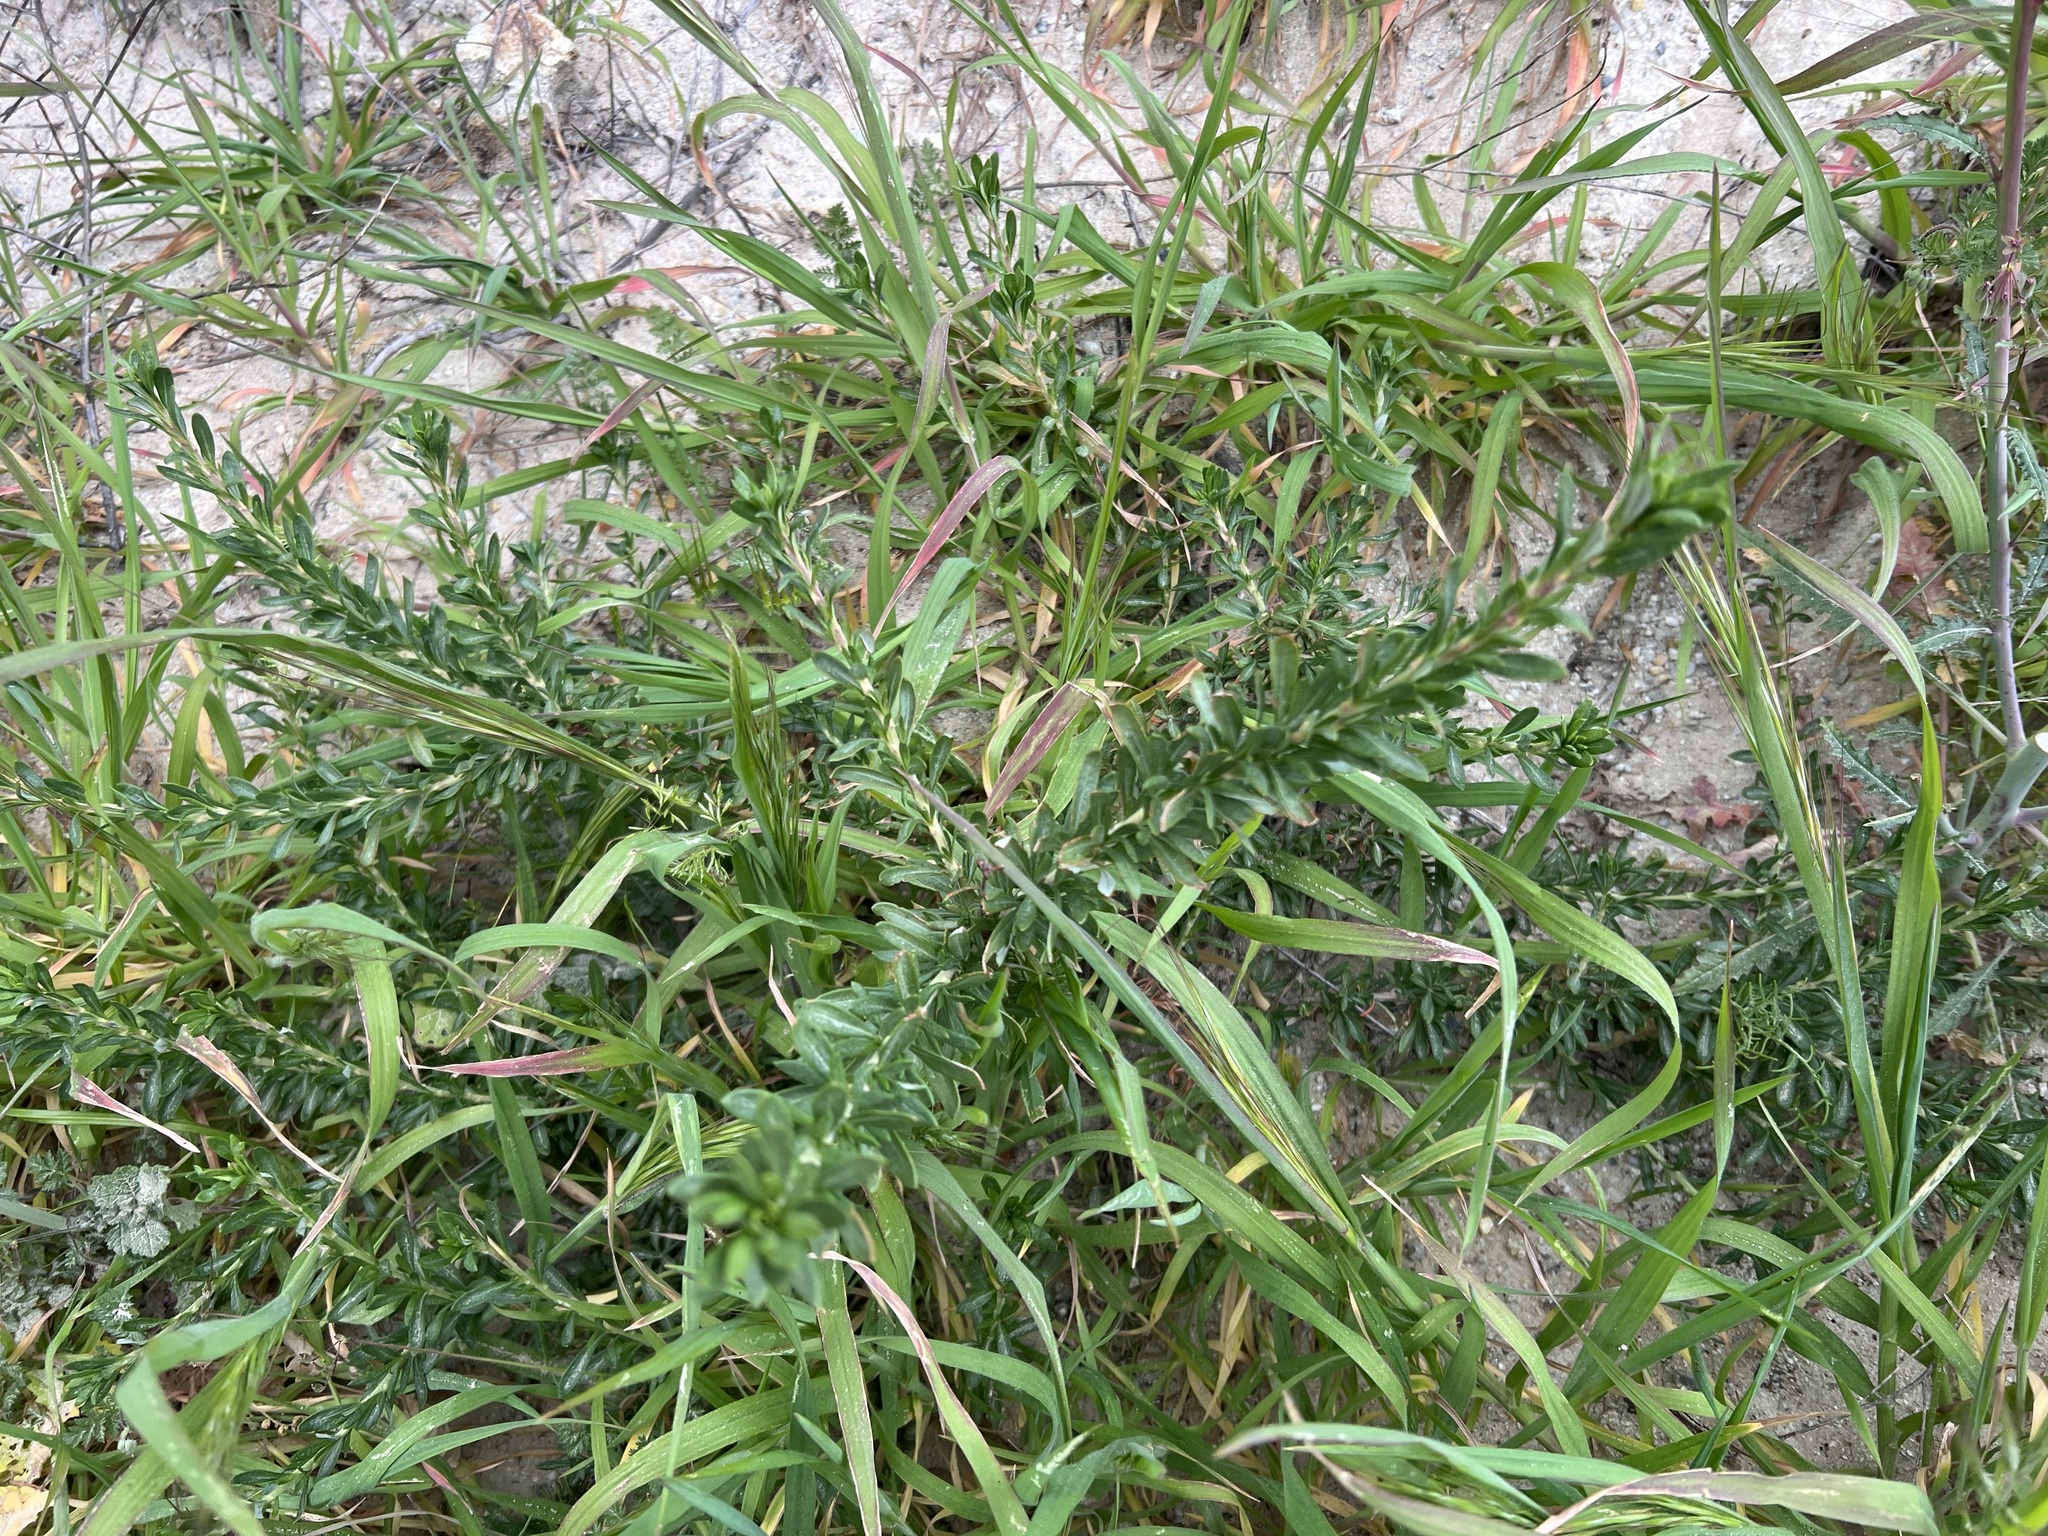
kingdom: Plantae
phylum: Tracheophyta
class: Magnoliopsida
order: Caryophyllales
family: Polygonaceae
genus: Eriogonum
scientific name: Eriogonum fasciculatum
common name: California wild buckwheat
